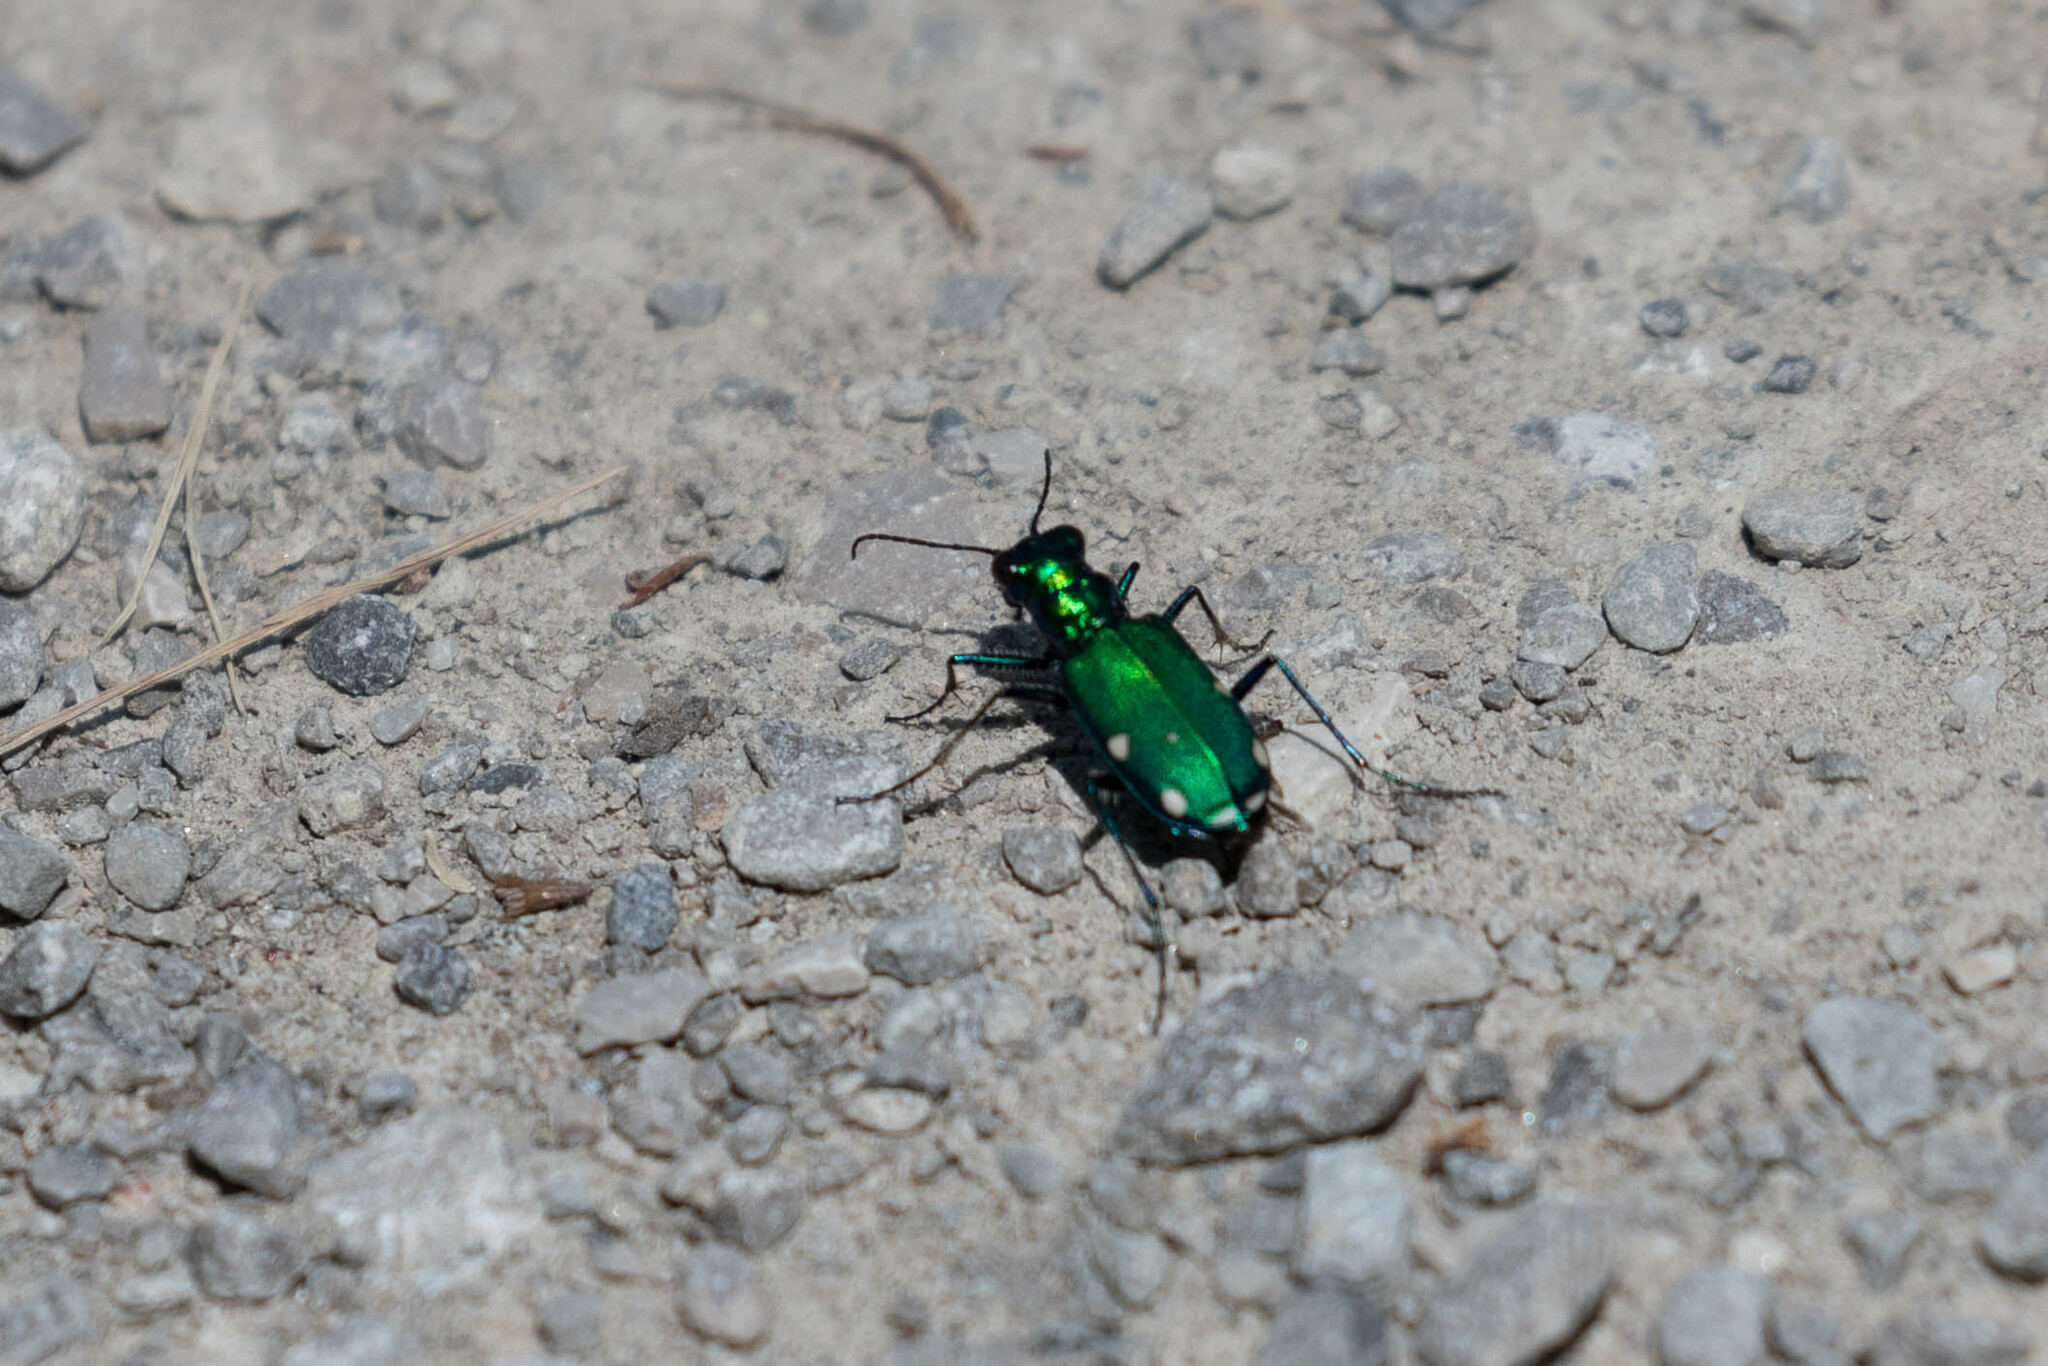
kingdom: Animalia
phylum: Arthropoda
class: Insecta
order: Coleoptera
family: Carabidae
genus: Cicindela
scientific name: Cicindela sexguttata
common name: Six-spotted tiger beetle
